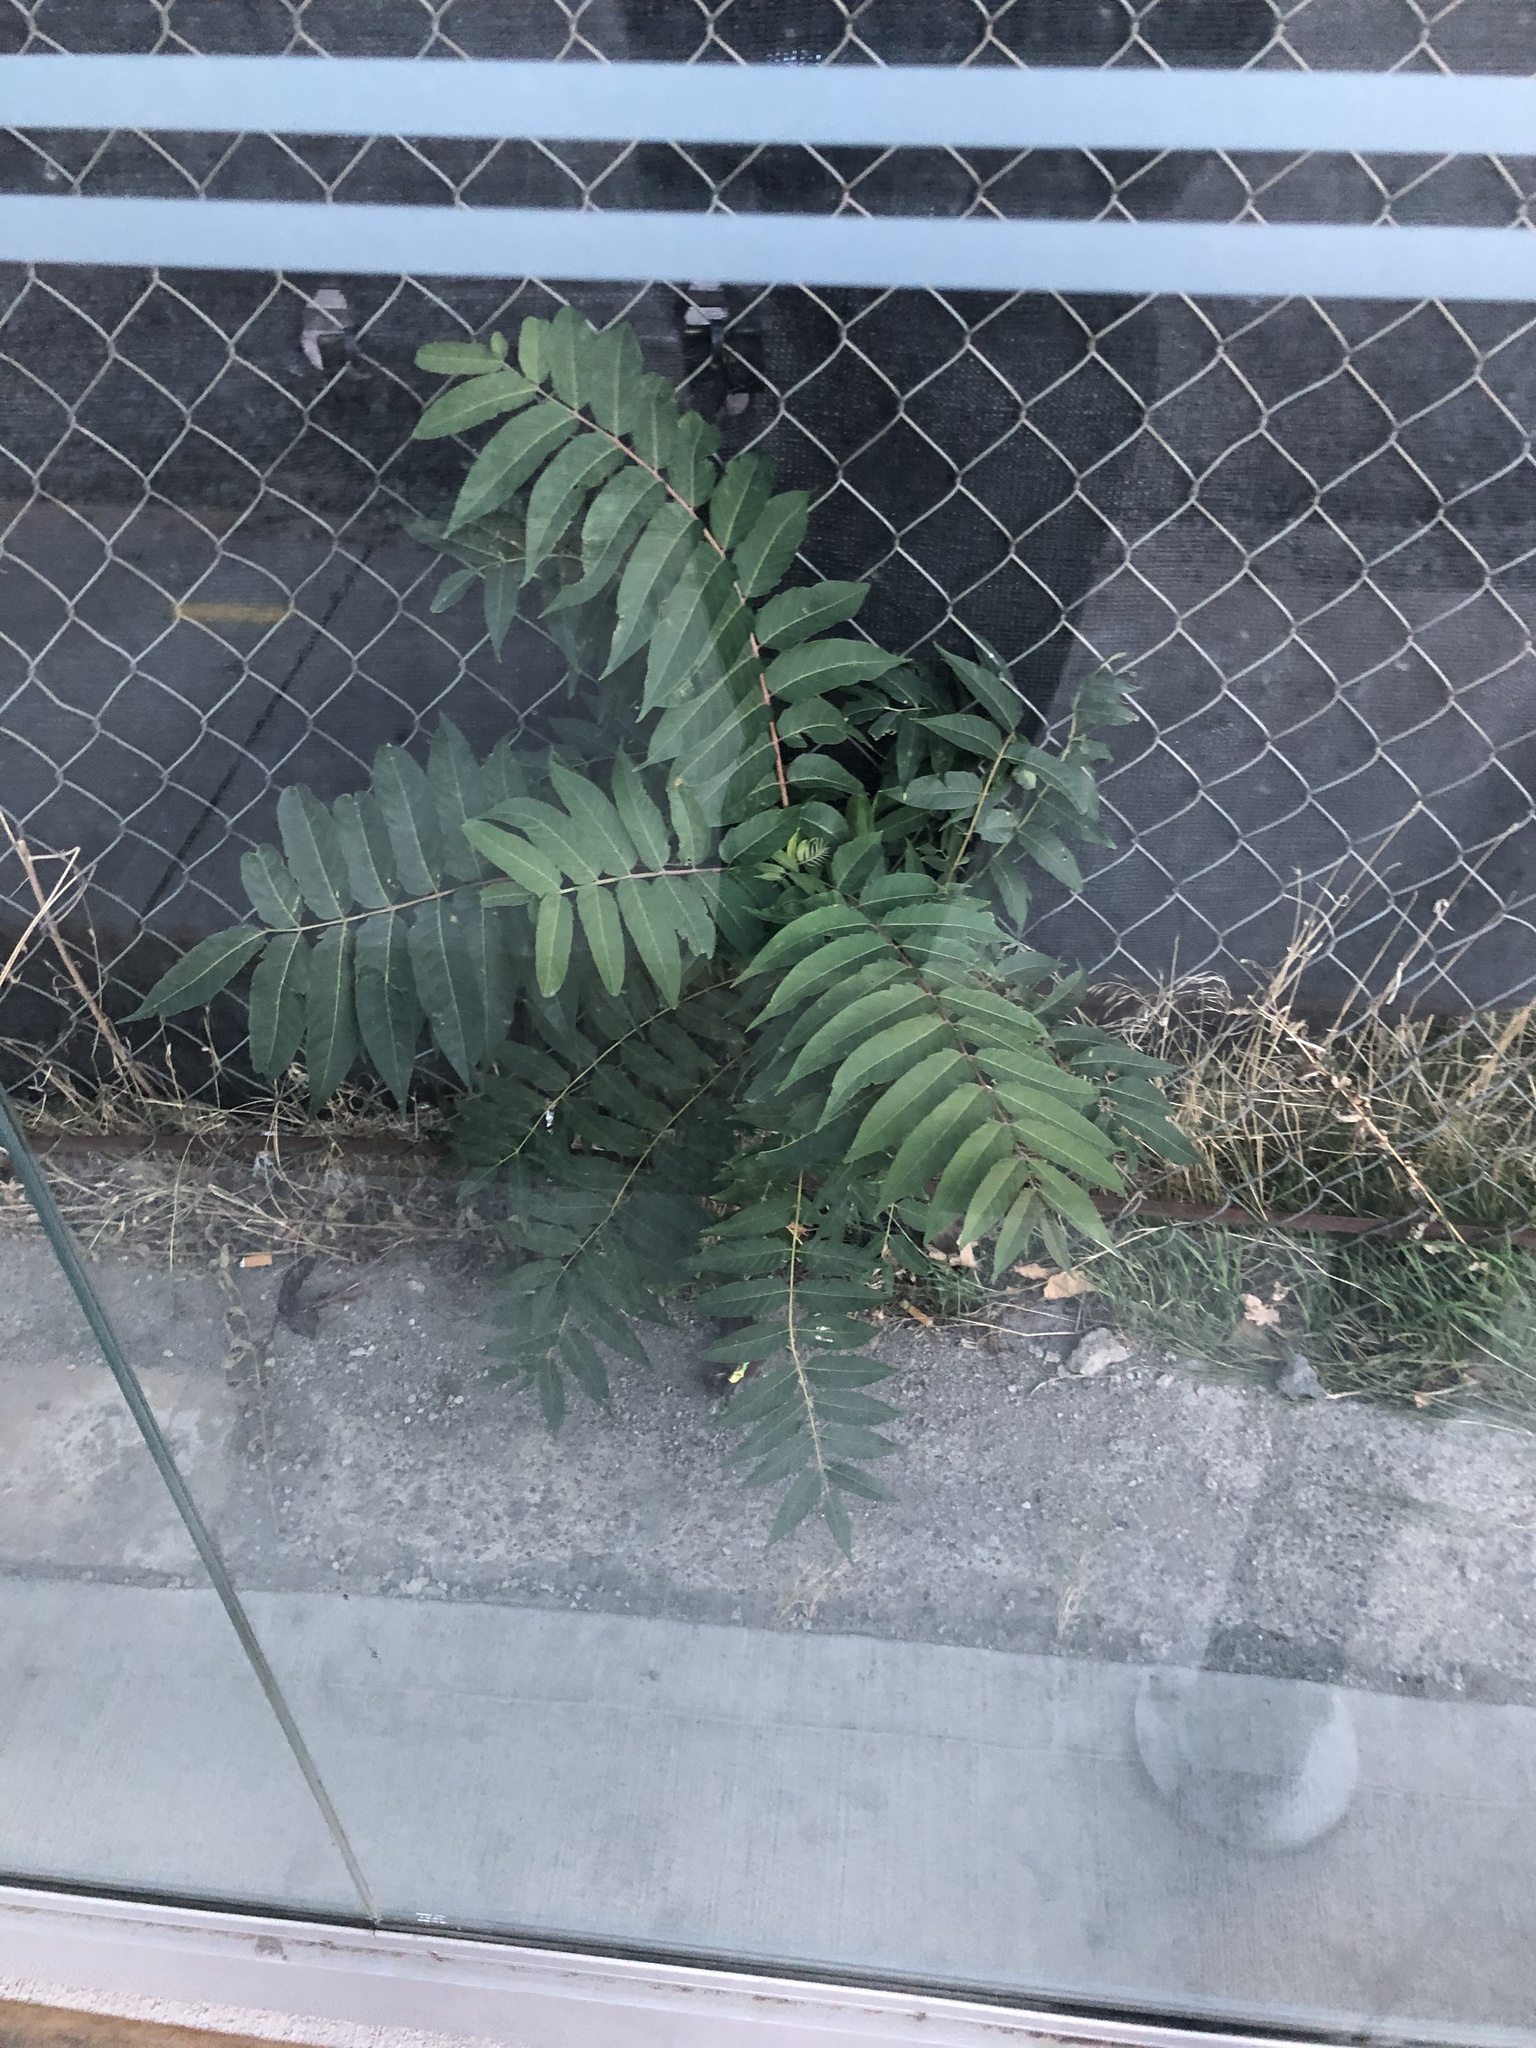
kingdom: Plantae
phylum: Tracheophyta
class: Magnoliopsida
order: Sapindales
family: Simaroubaceae
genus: Ailanthus
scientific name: Ailanthus altissima
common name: Tree-of-heaven
